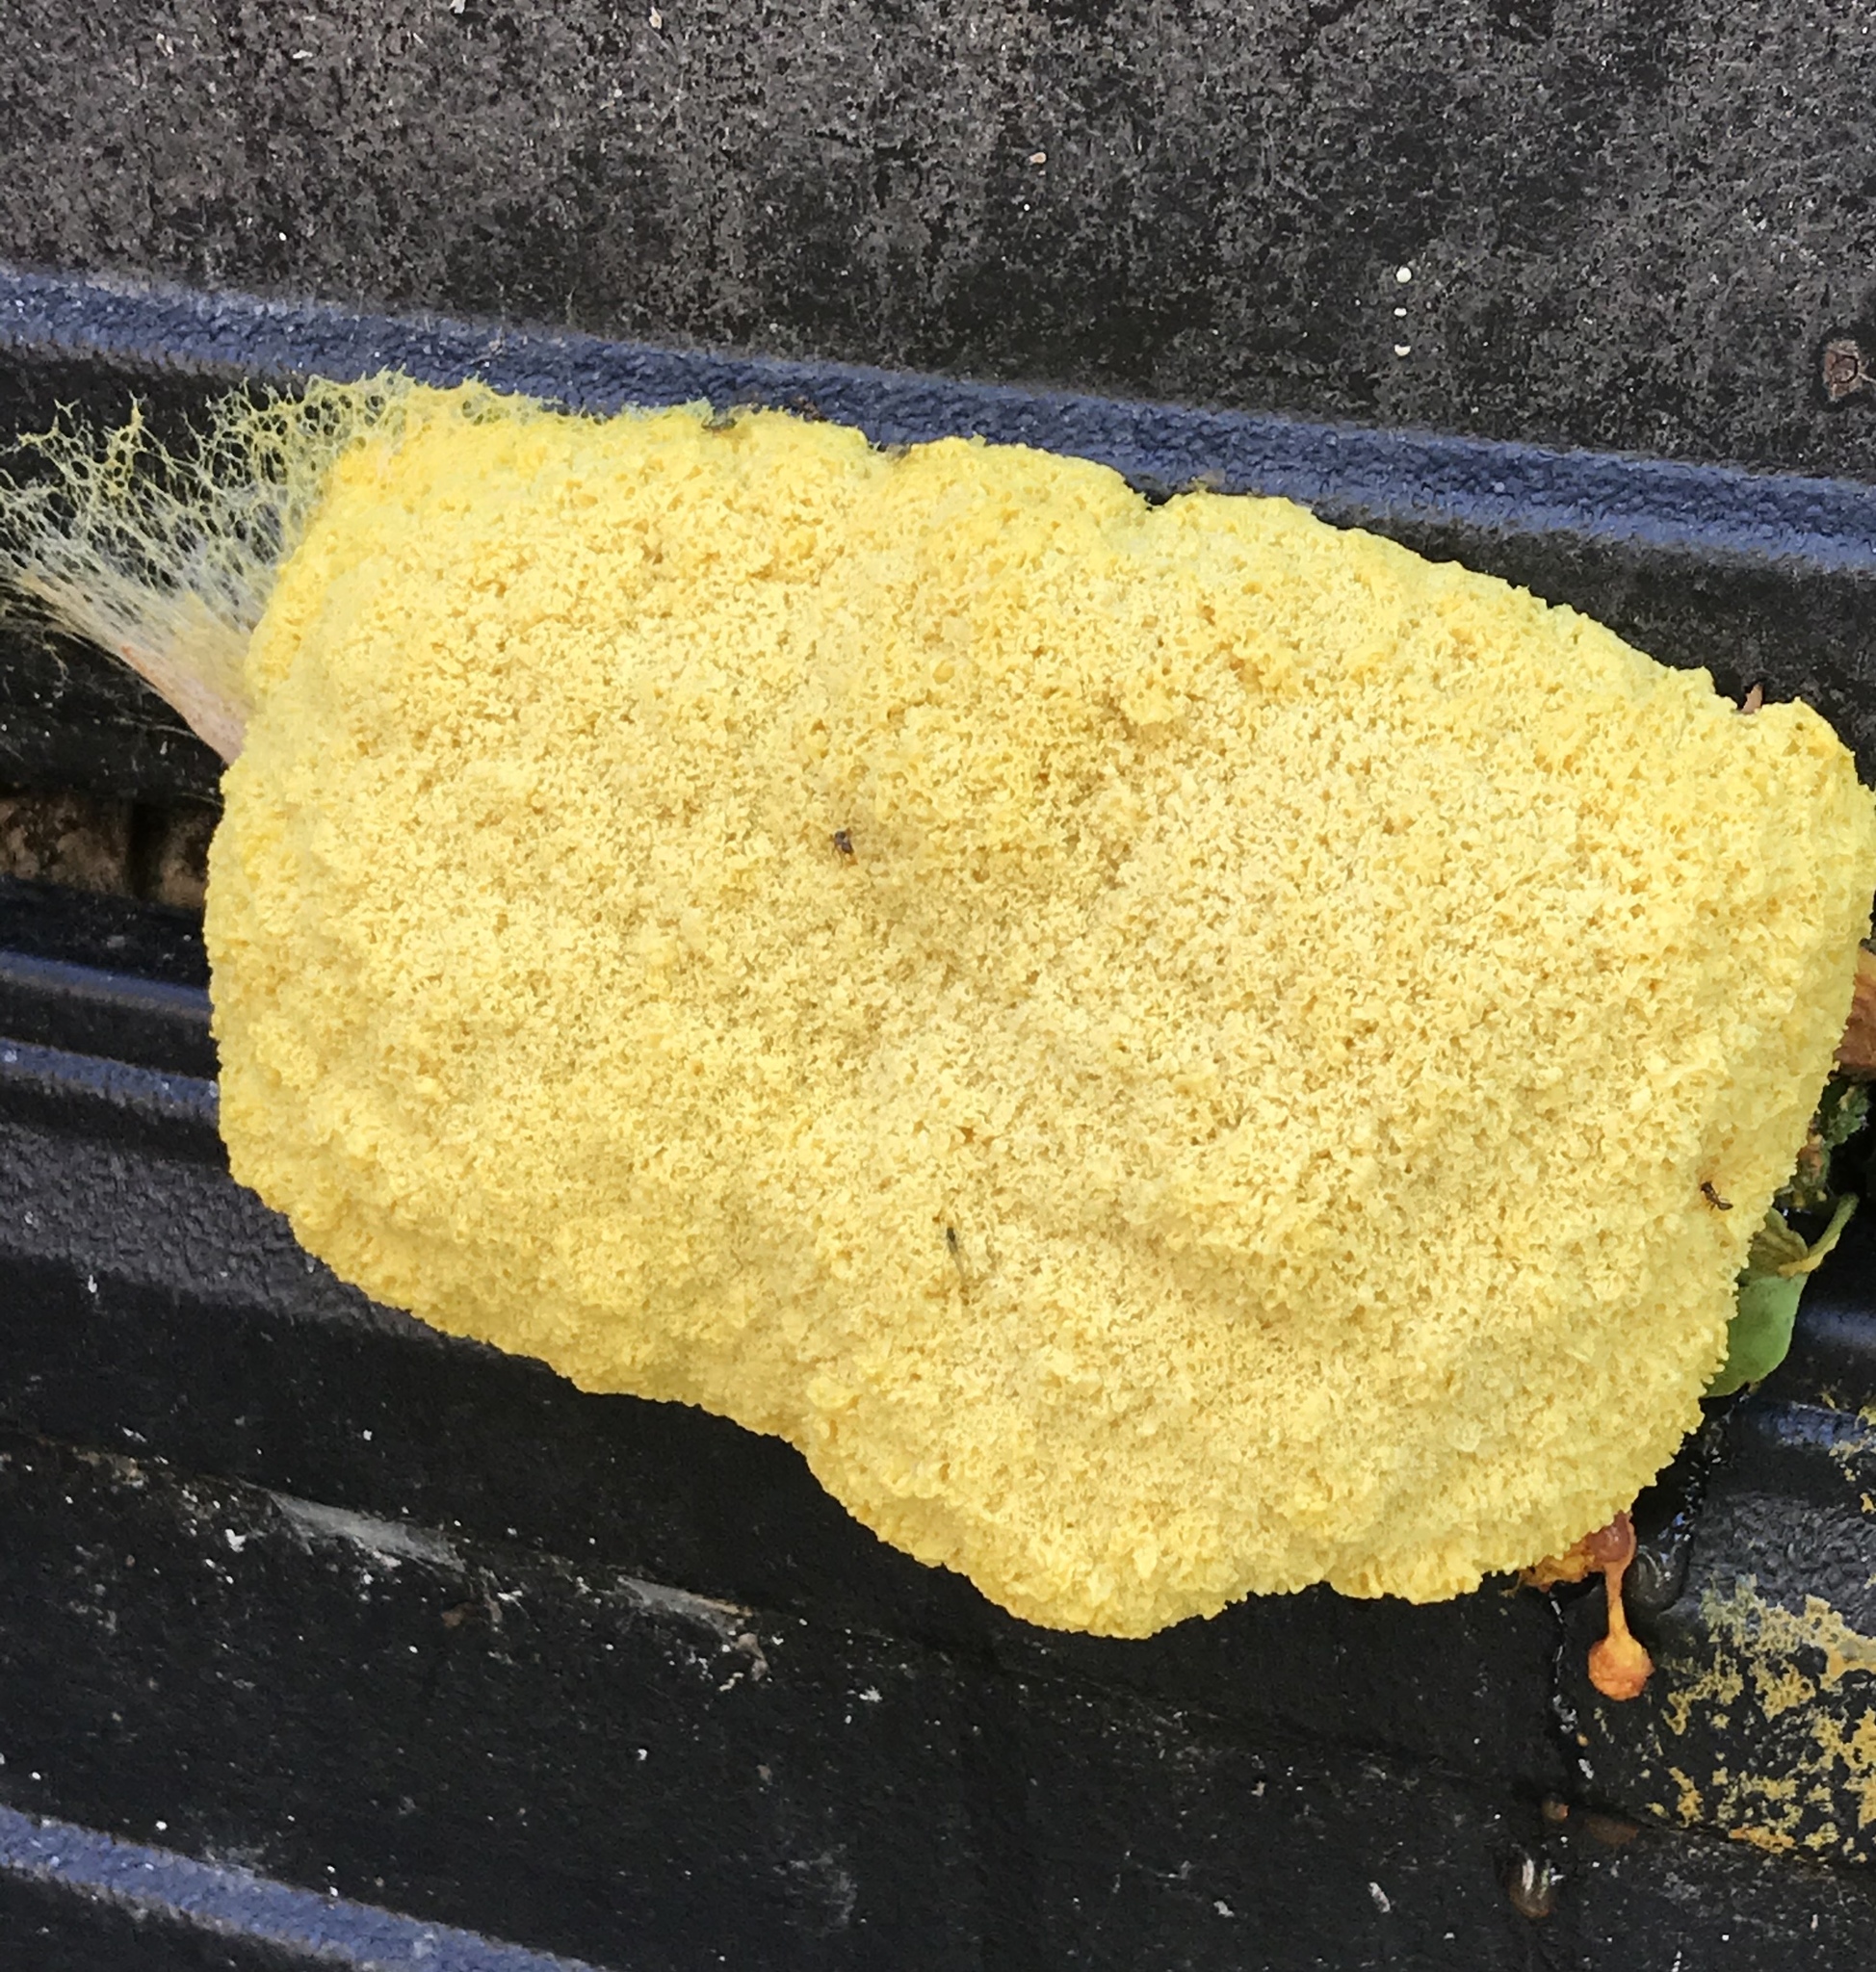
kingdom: Protozoa
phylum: Mycetozoa
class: Myxomycetes
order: Physarales
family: Physaraceae
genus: Fuligo
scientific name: Fuligo septica
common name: Dog vomit slime mold
